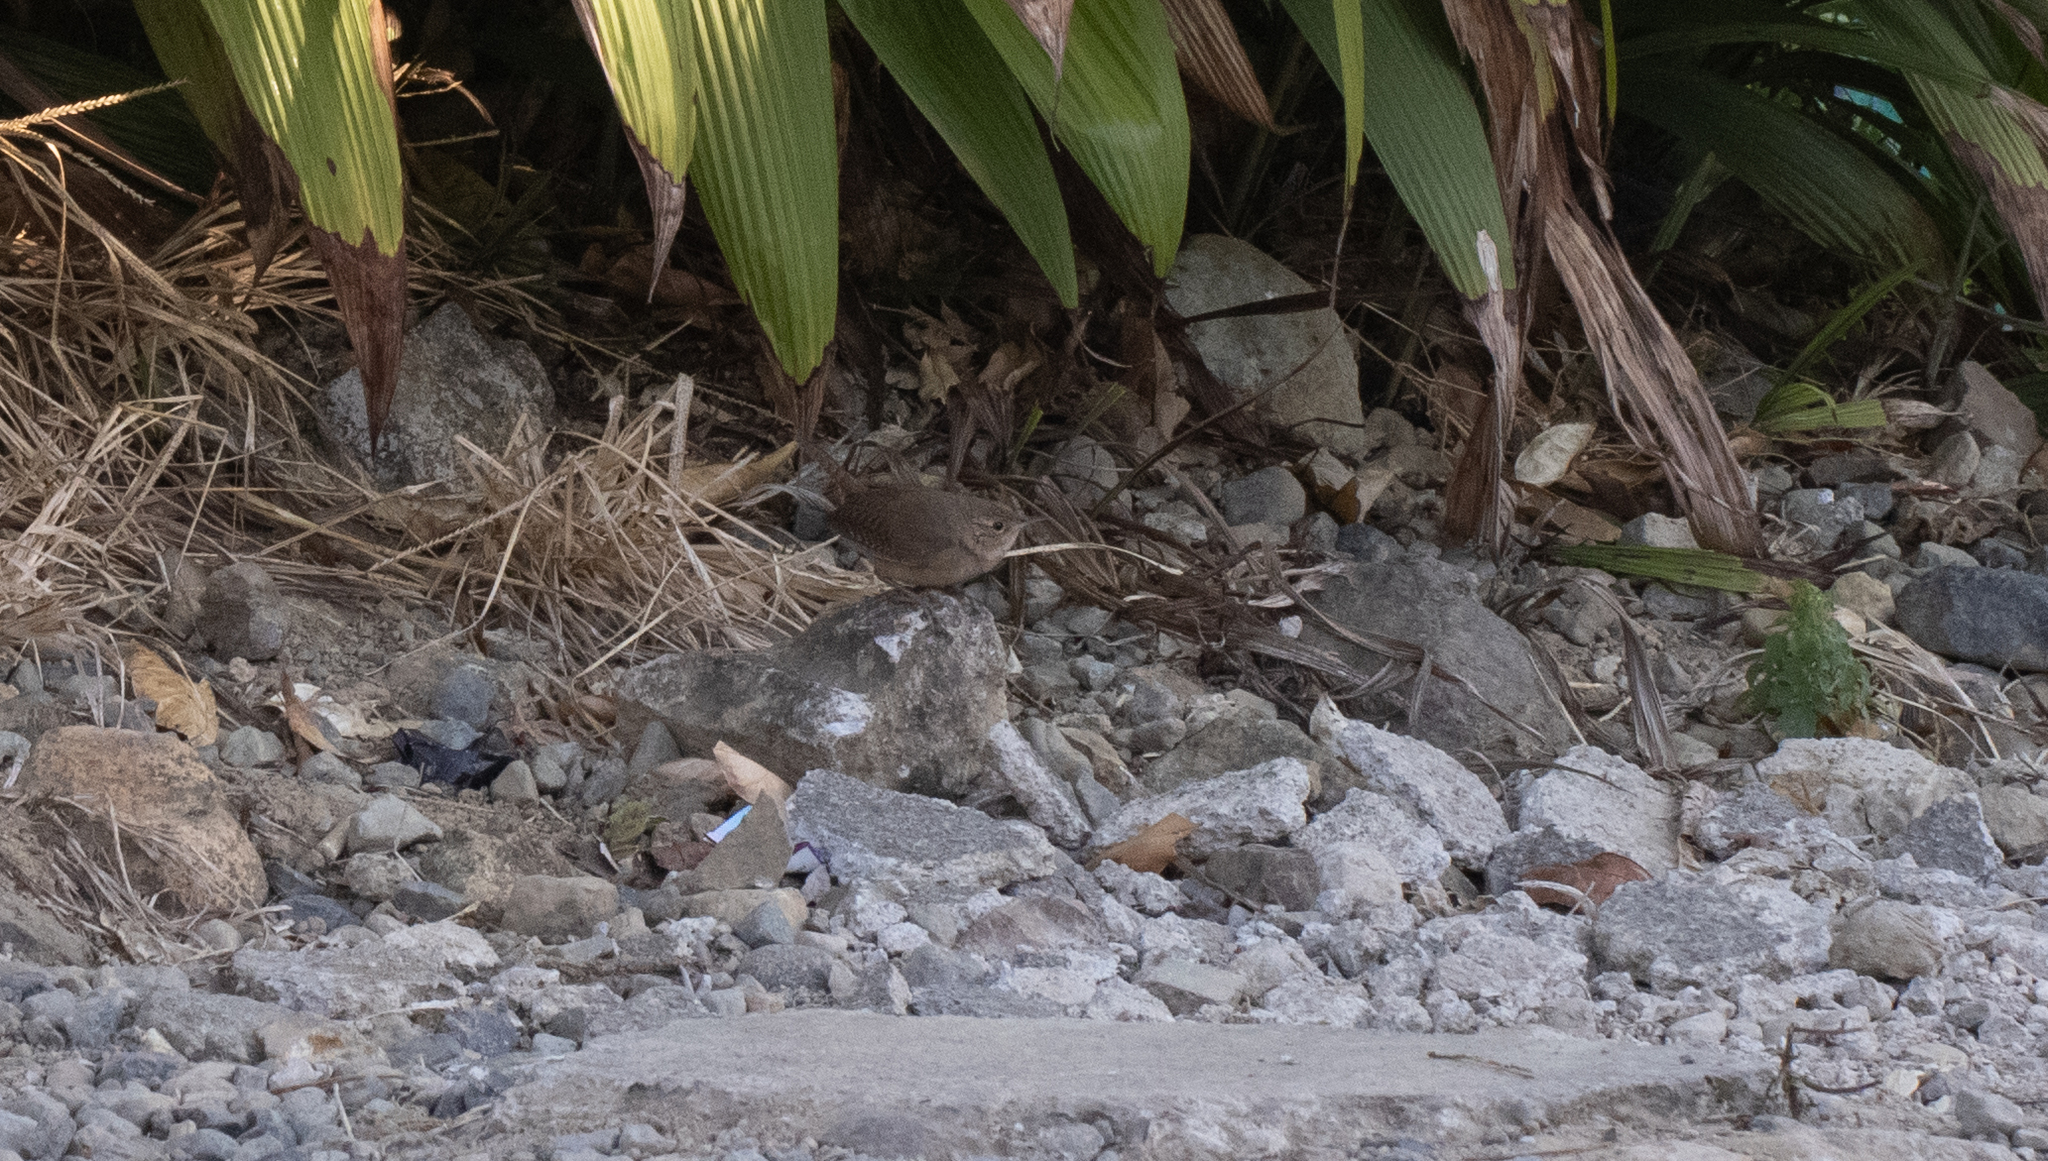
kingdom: Animalia
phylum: Chordata
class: Aves
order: Passeriformes
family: Troglodytidae
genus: Troglodytes
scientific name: Troglodytes aedon
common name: House wren
